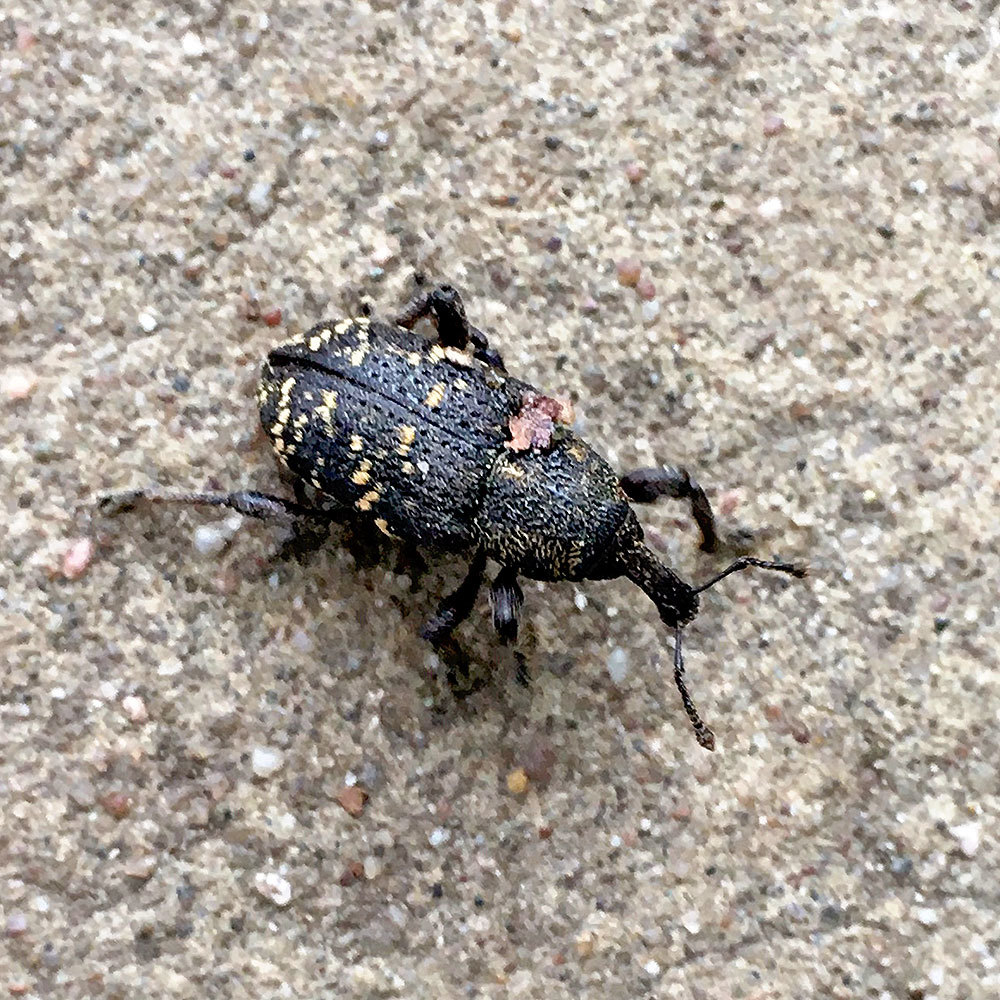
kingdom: Animalia
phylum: Arthropoda
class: Insecta
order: Coleoptera
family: Curculionidae
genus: Hylobius
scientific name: Hylobius abietis
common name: Large pine weevil
